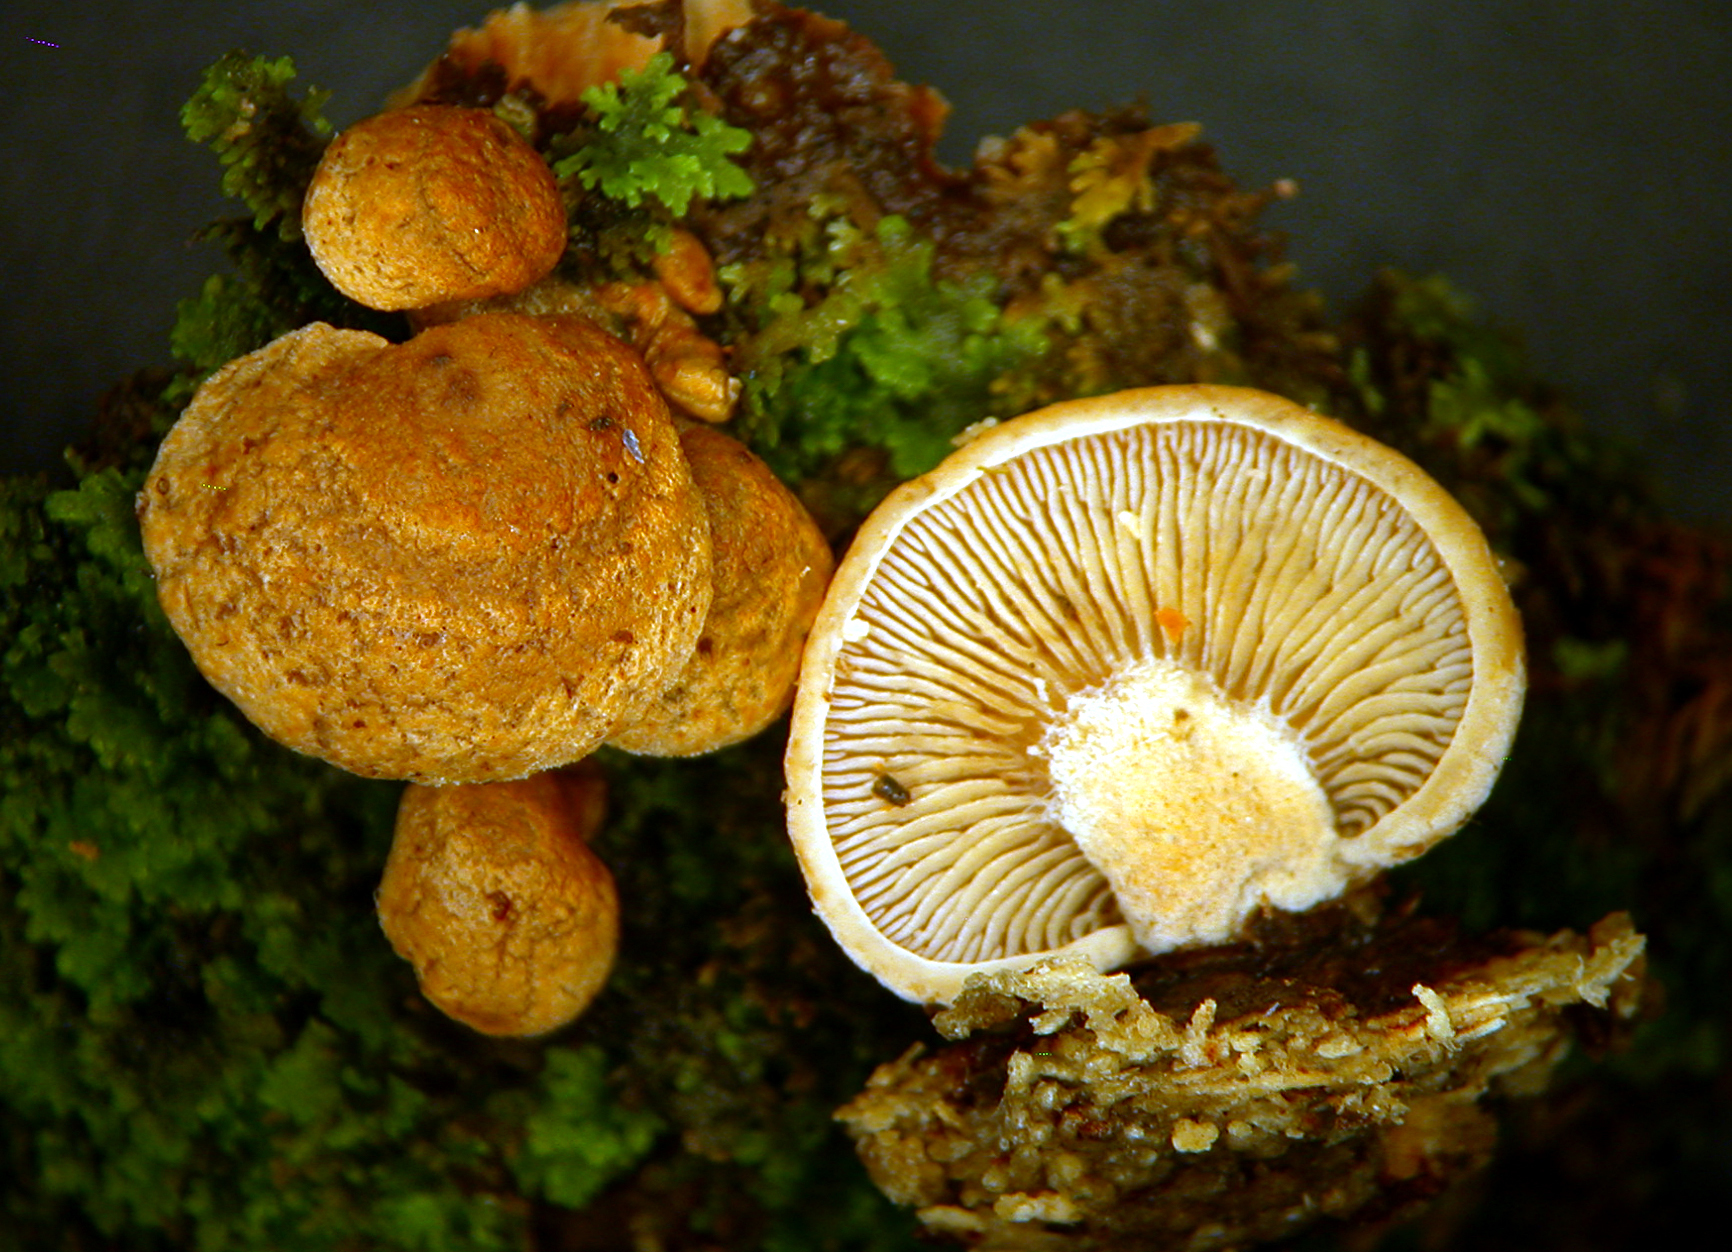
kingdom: Fungi
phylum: Basidiomycota
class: Agaricomycetes
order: Agaricales
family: Mycenaceae
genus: Panellus
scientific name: Panellus stipticus
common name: Bitter oysterling
